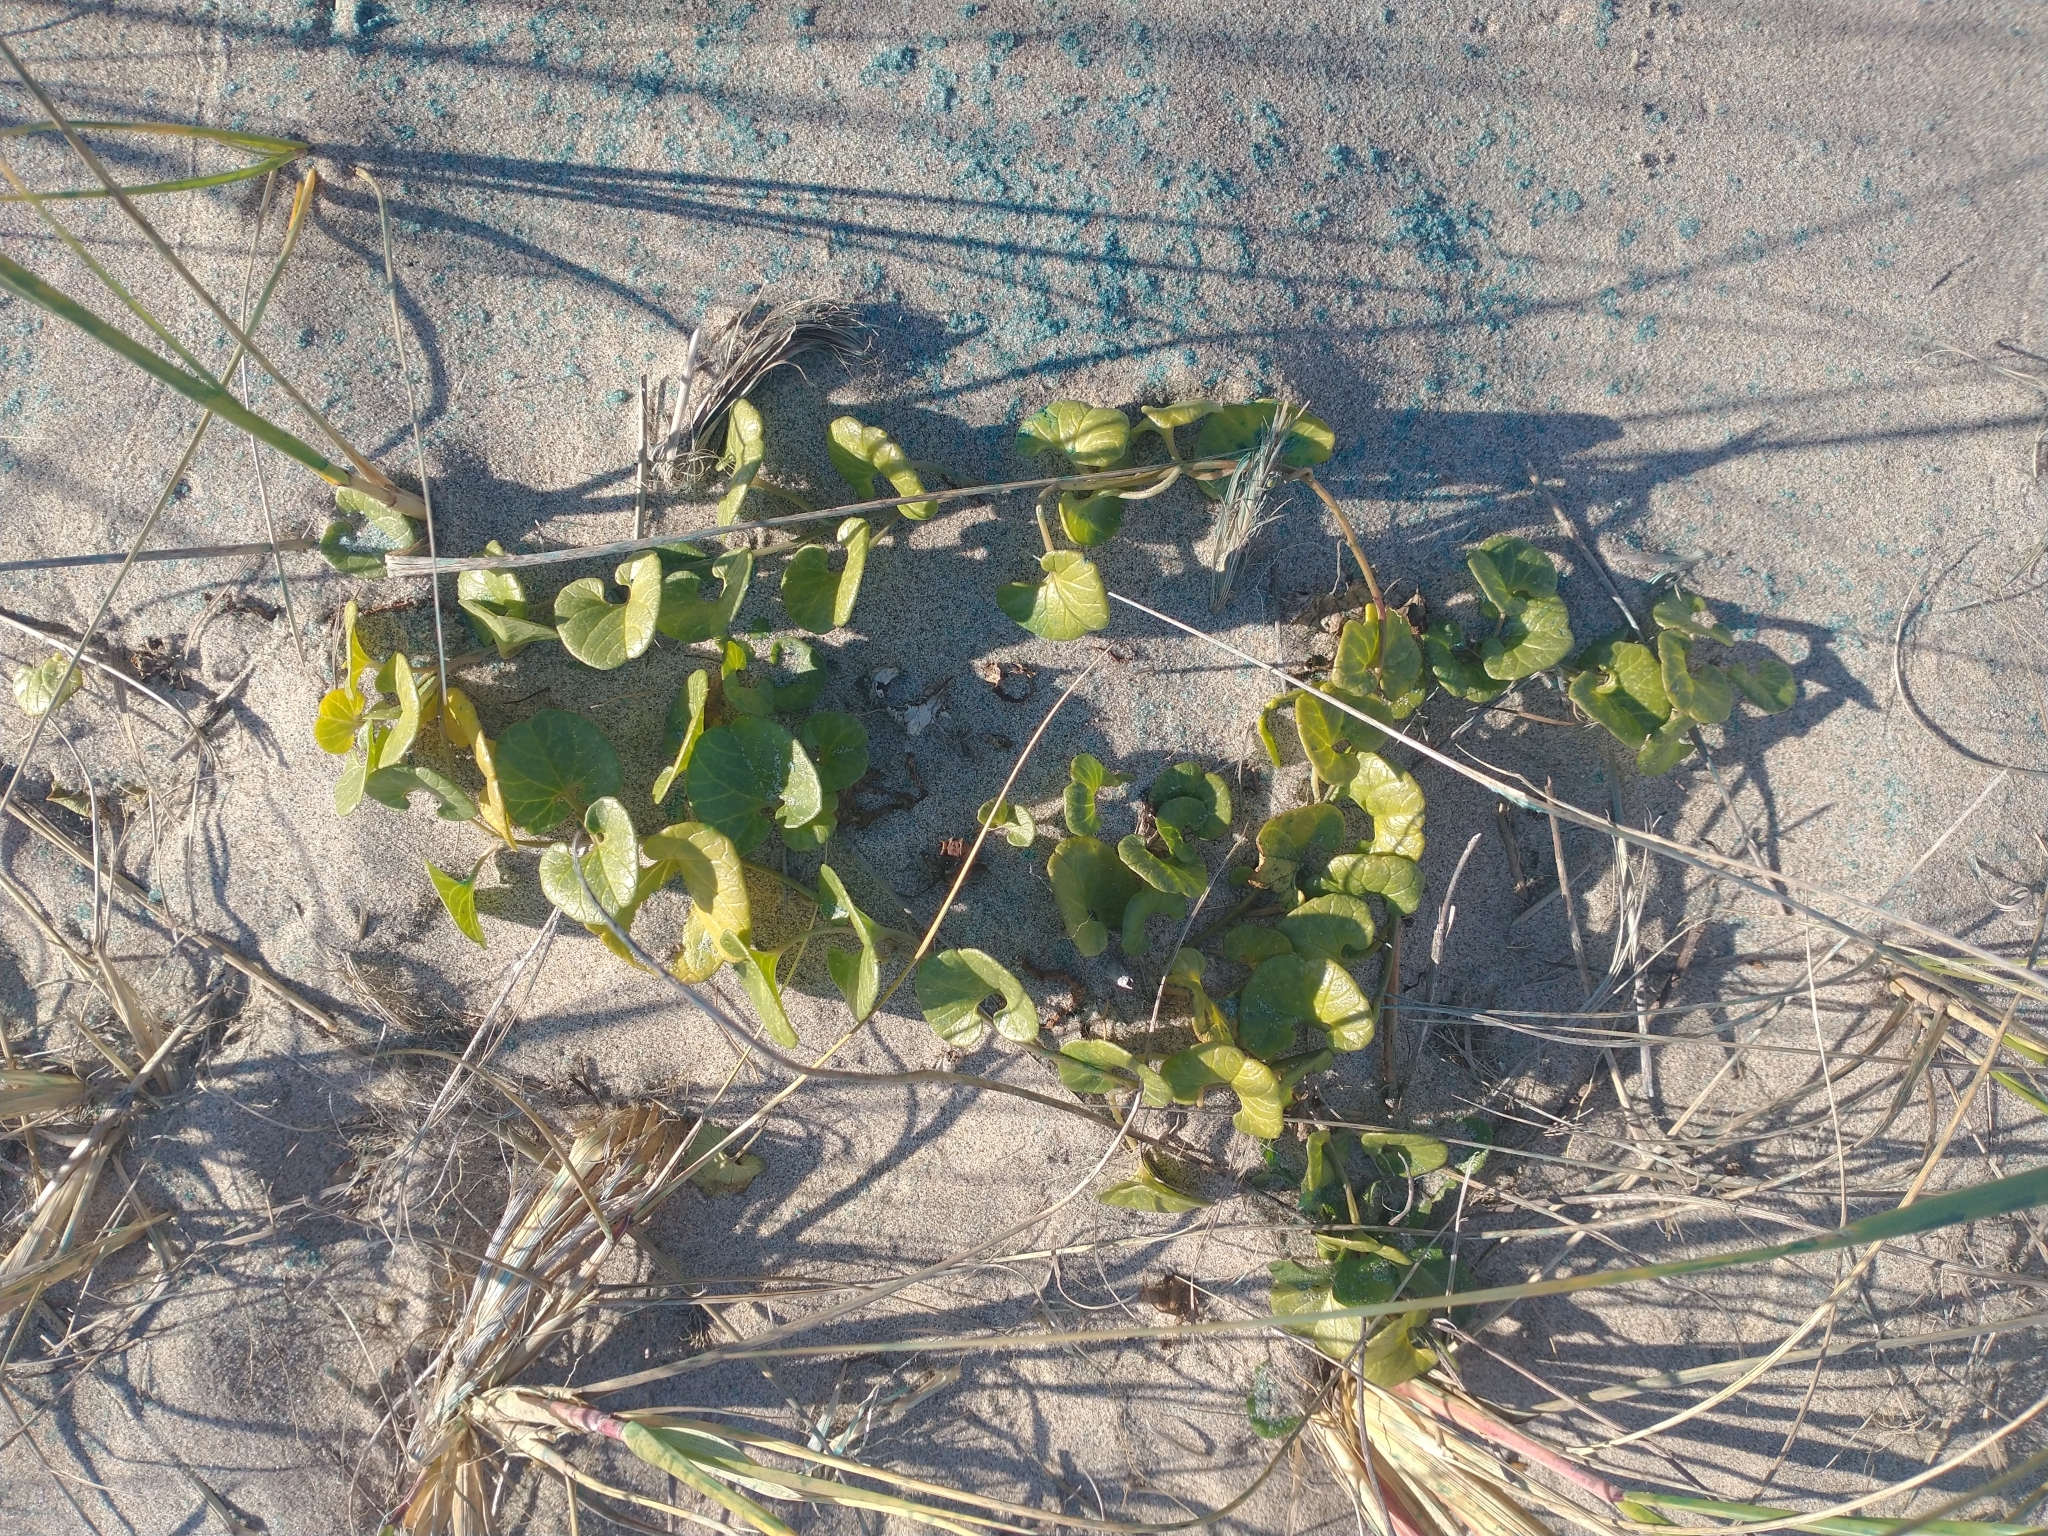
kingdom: Plantae
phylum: Tracheophyta
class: Magnoliopsida
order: Solanales
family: Convolvulaceae
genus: Calystegia
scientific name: Calystegia soldanella
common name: Sea bindweed
